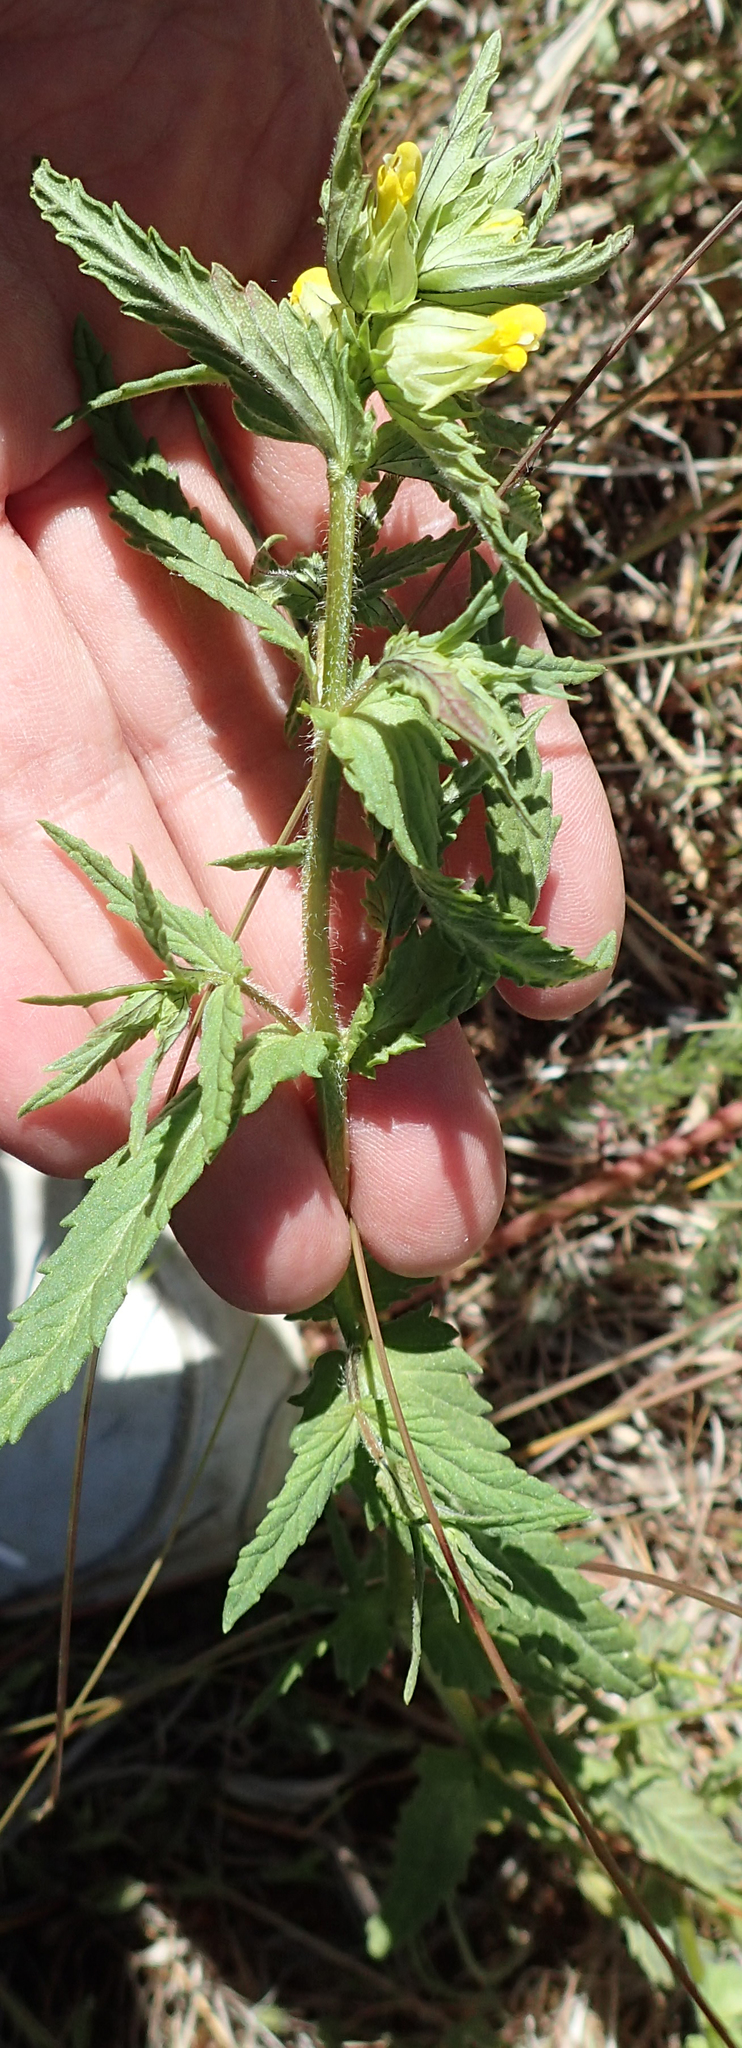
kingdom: Plantae
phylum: Tracheophyta
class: Magnoliopsida
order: Lamiales
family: Orobanchaceae
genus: Rhinanthus
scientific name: Rhinanthus minor
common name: Yellow-rattle
